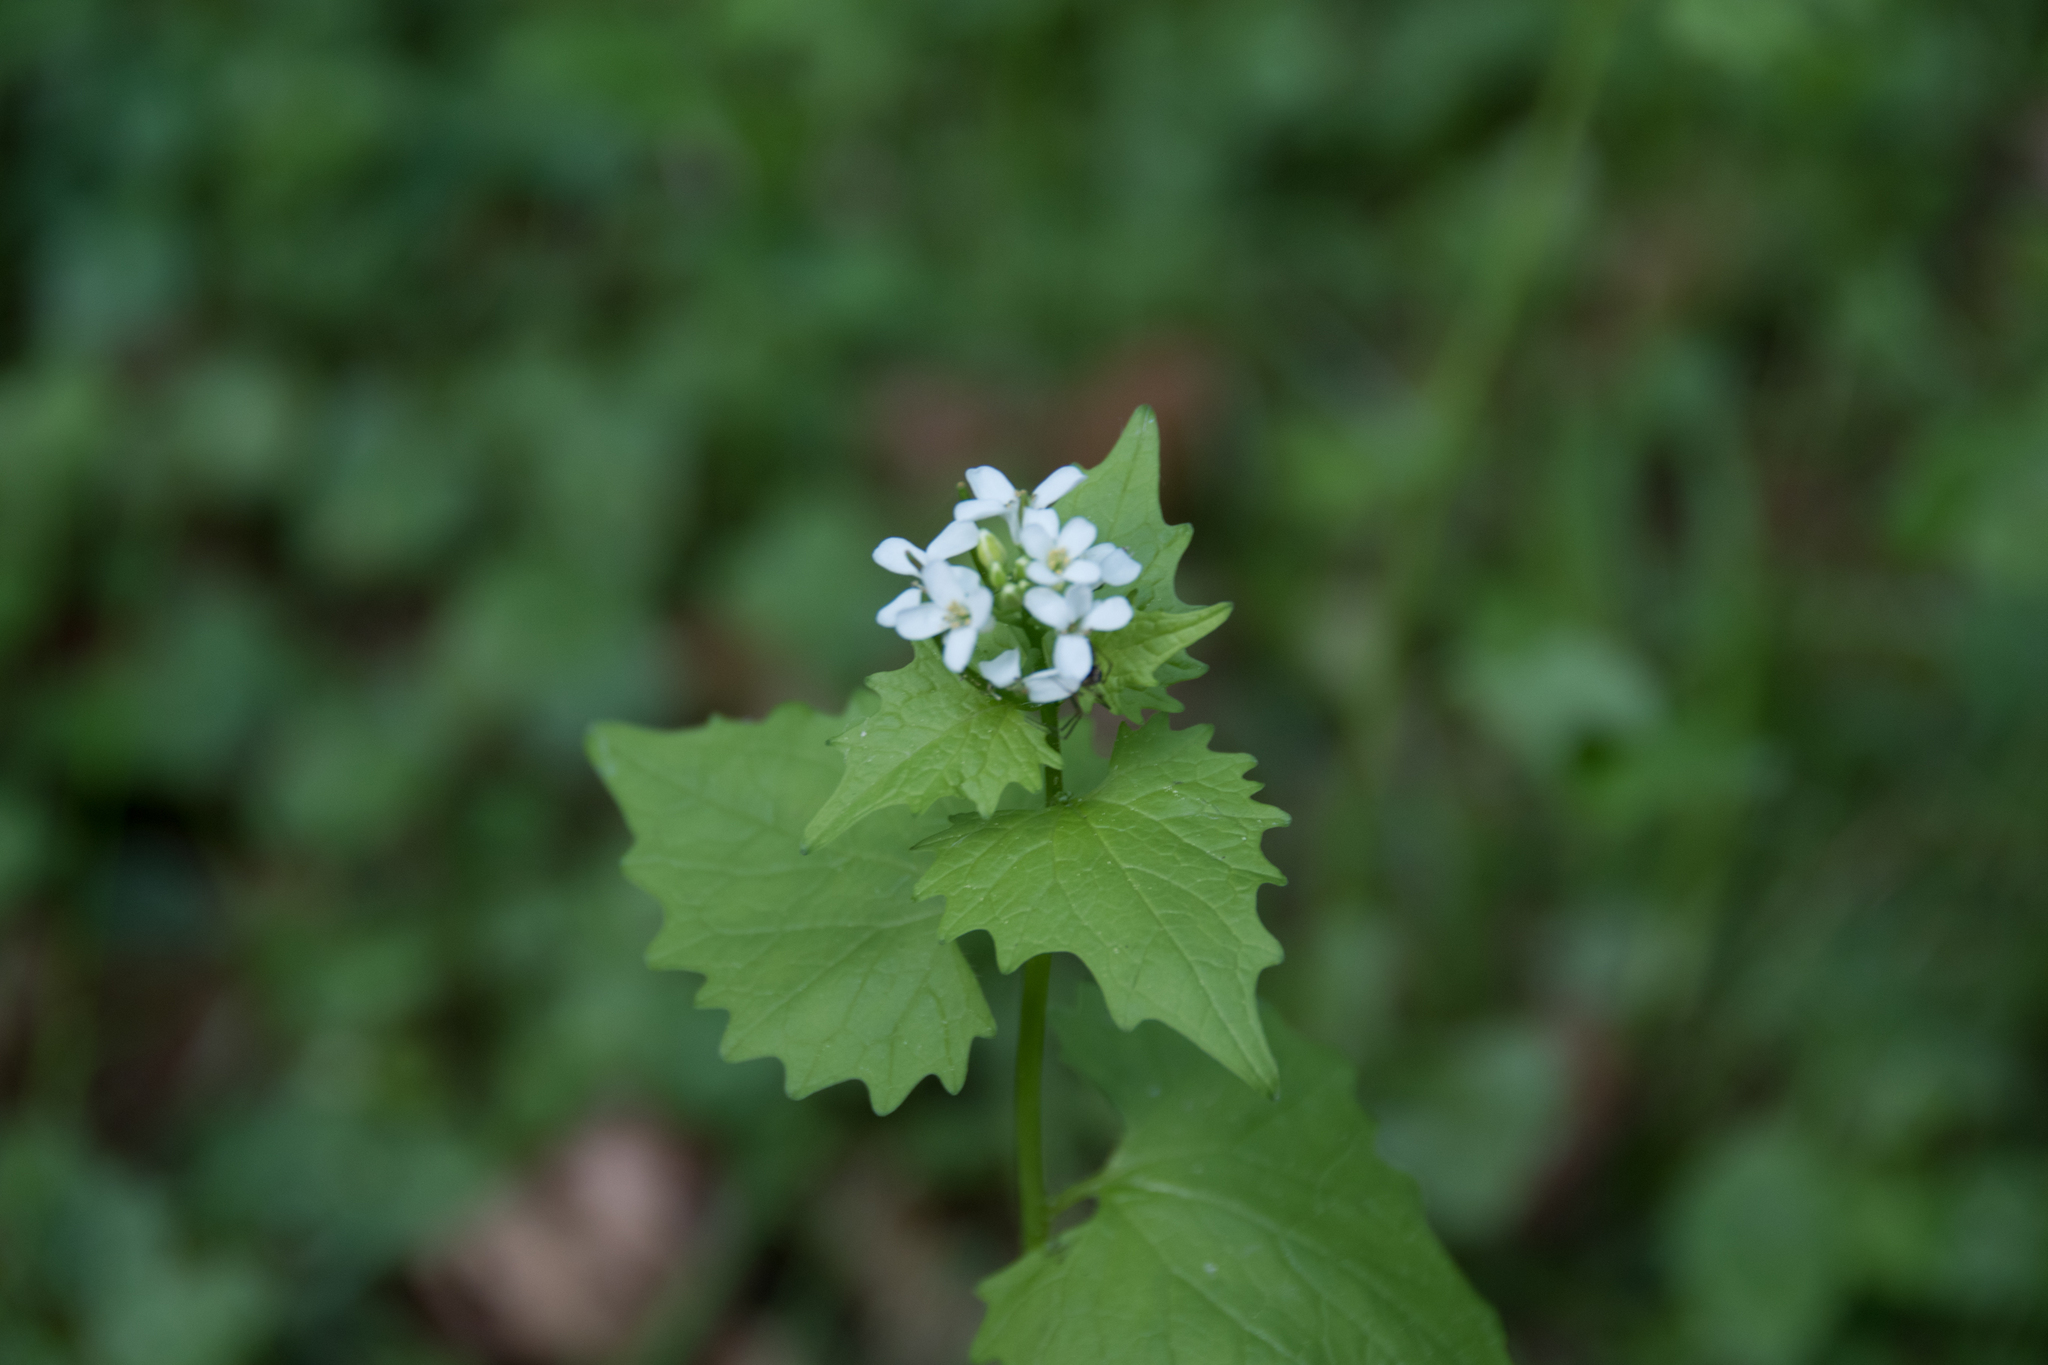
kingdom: Plantae
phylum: Tracheophyta
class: Magnoliopsida
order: Brassicales
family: Brassicaceae
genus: Alliaria
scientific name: Alliaria petiolata
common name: Garlic mustard
